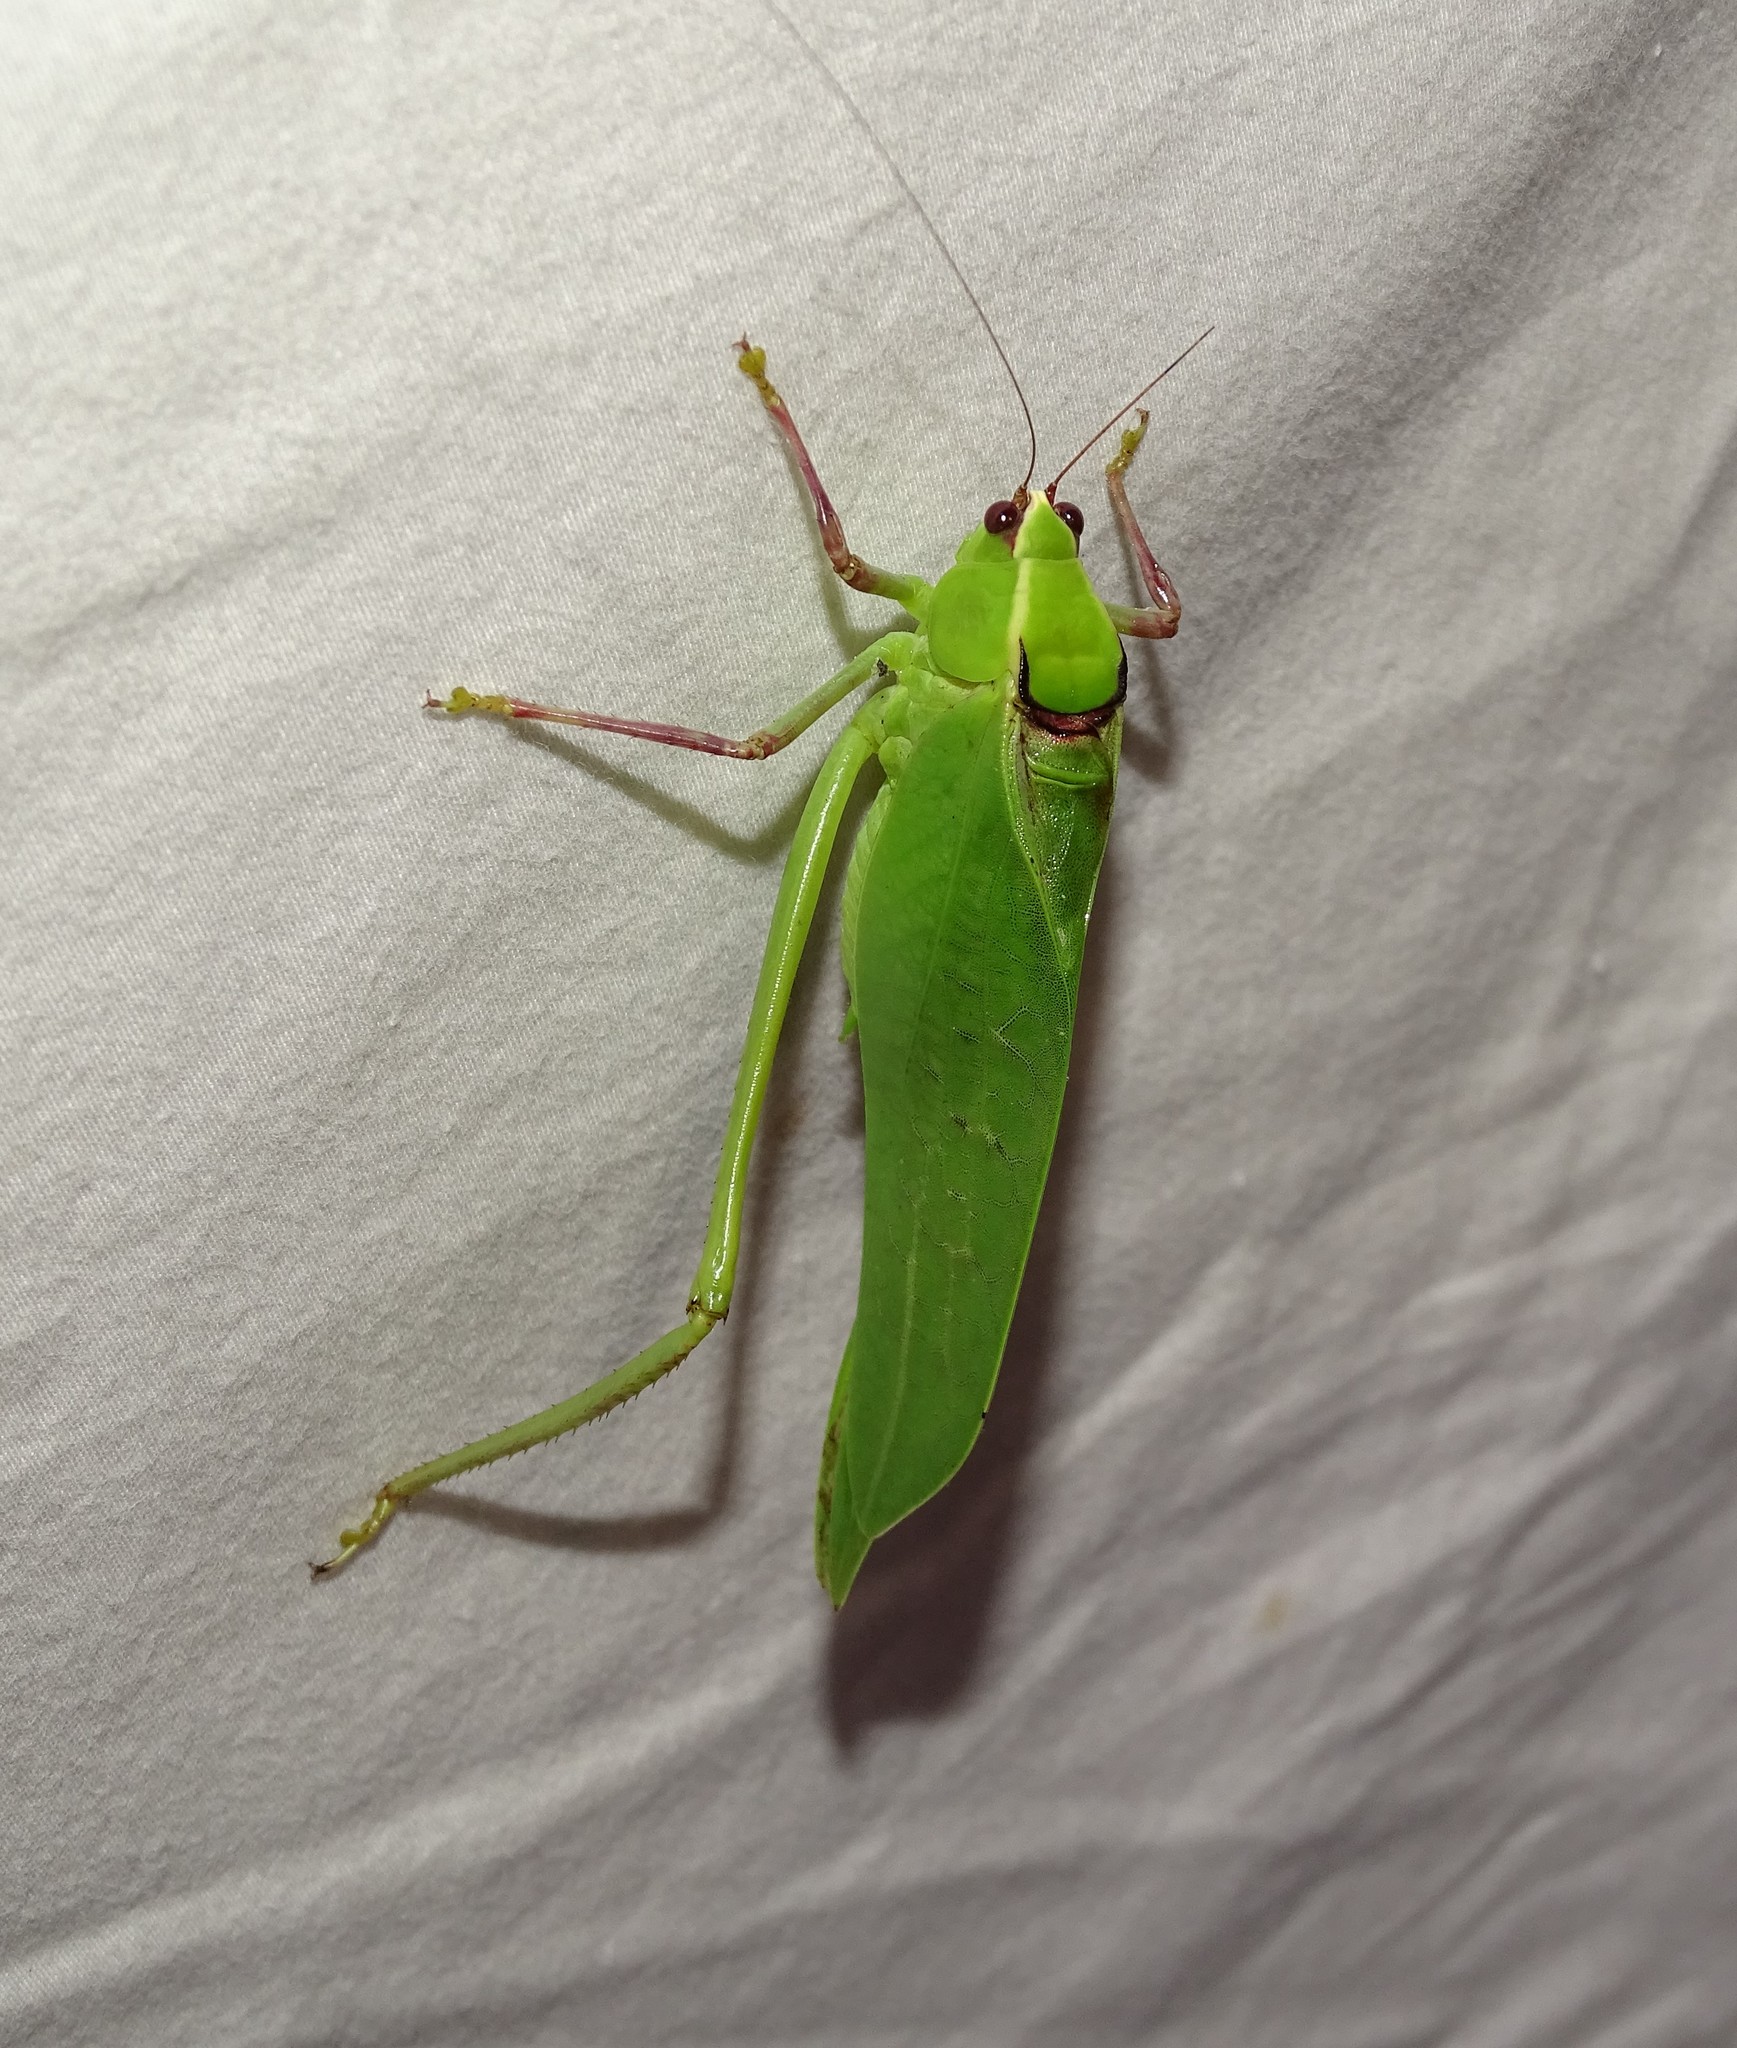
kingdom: Animalia
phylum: Arthropoda
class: Insecta
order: Orthoptera
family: Tettigoniidae
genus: Stilpnochlora
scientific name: Stilpnochlora couloniana
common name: Giant katydid
